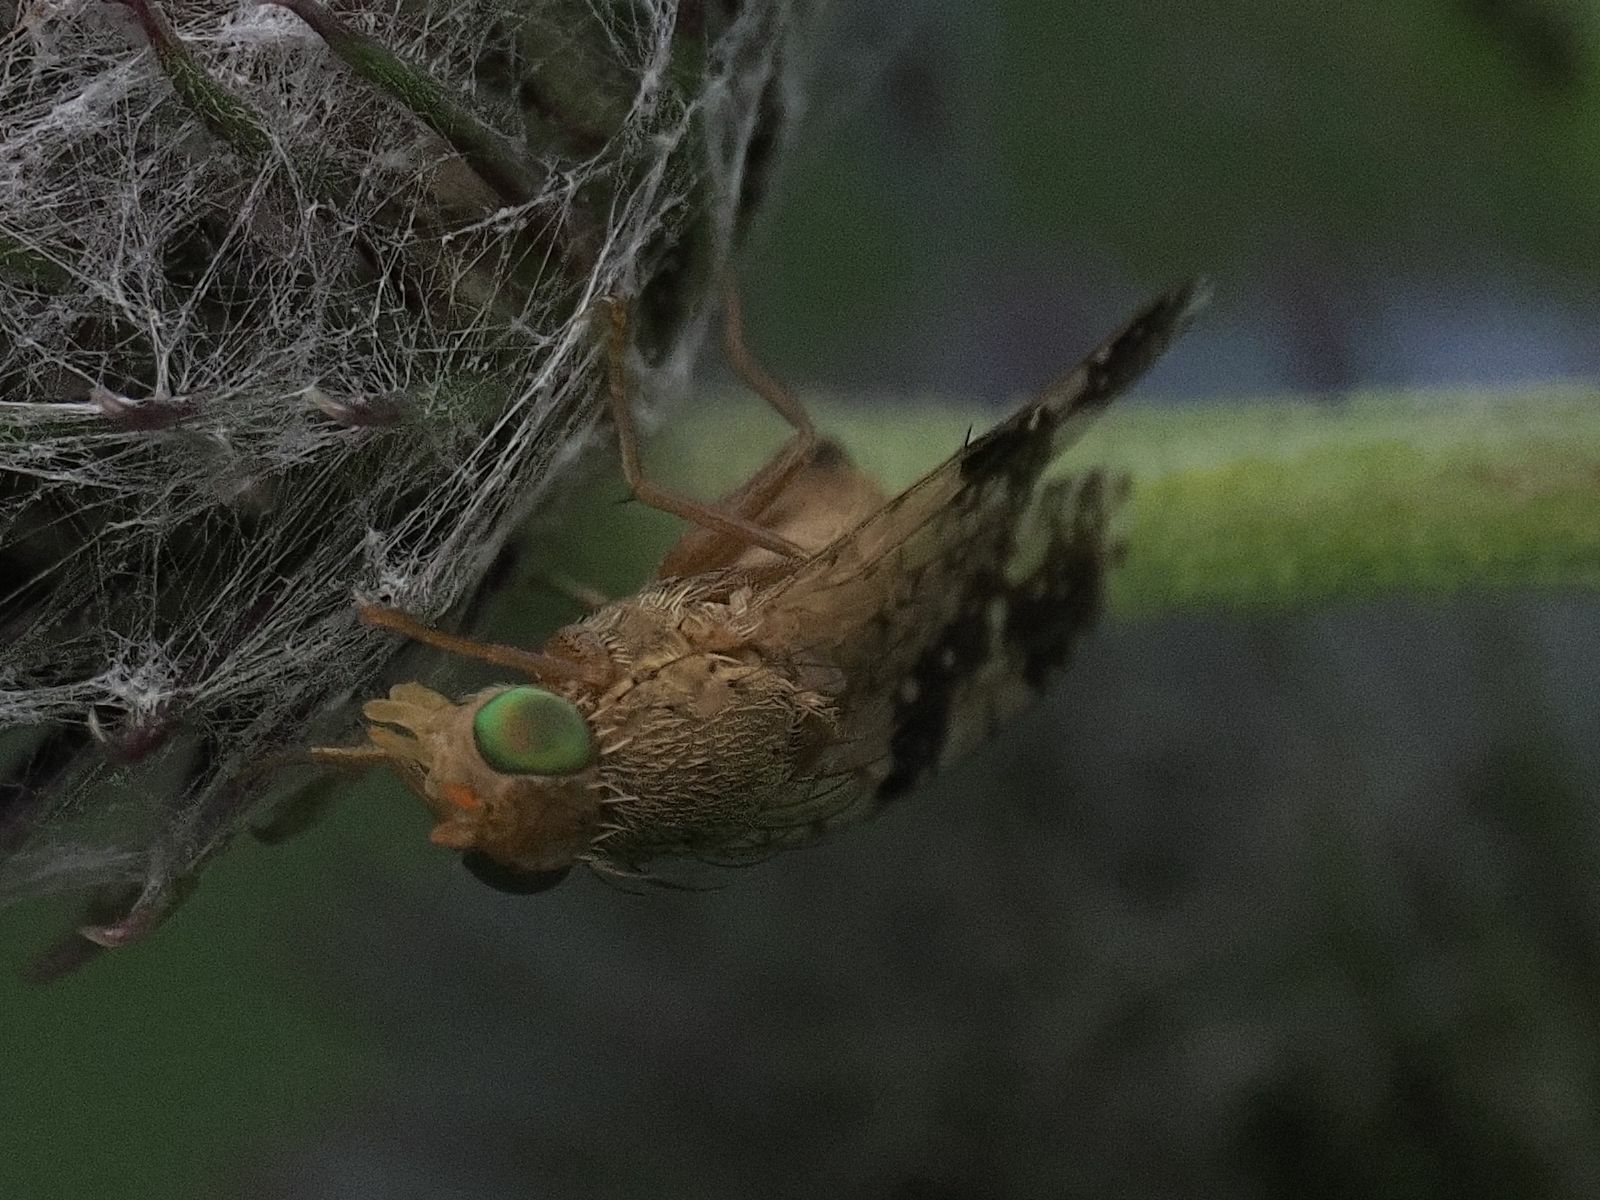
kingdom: Animalia
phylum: Arthropoda
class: Insecta
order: Diptera
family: Tephritidae
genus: Tephritis
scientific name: Tephritis bardanae
